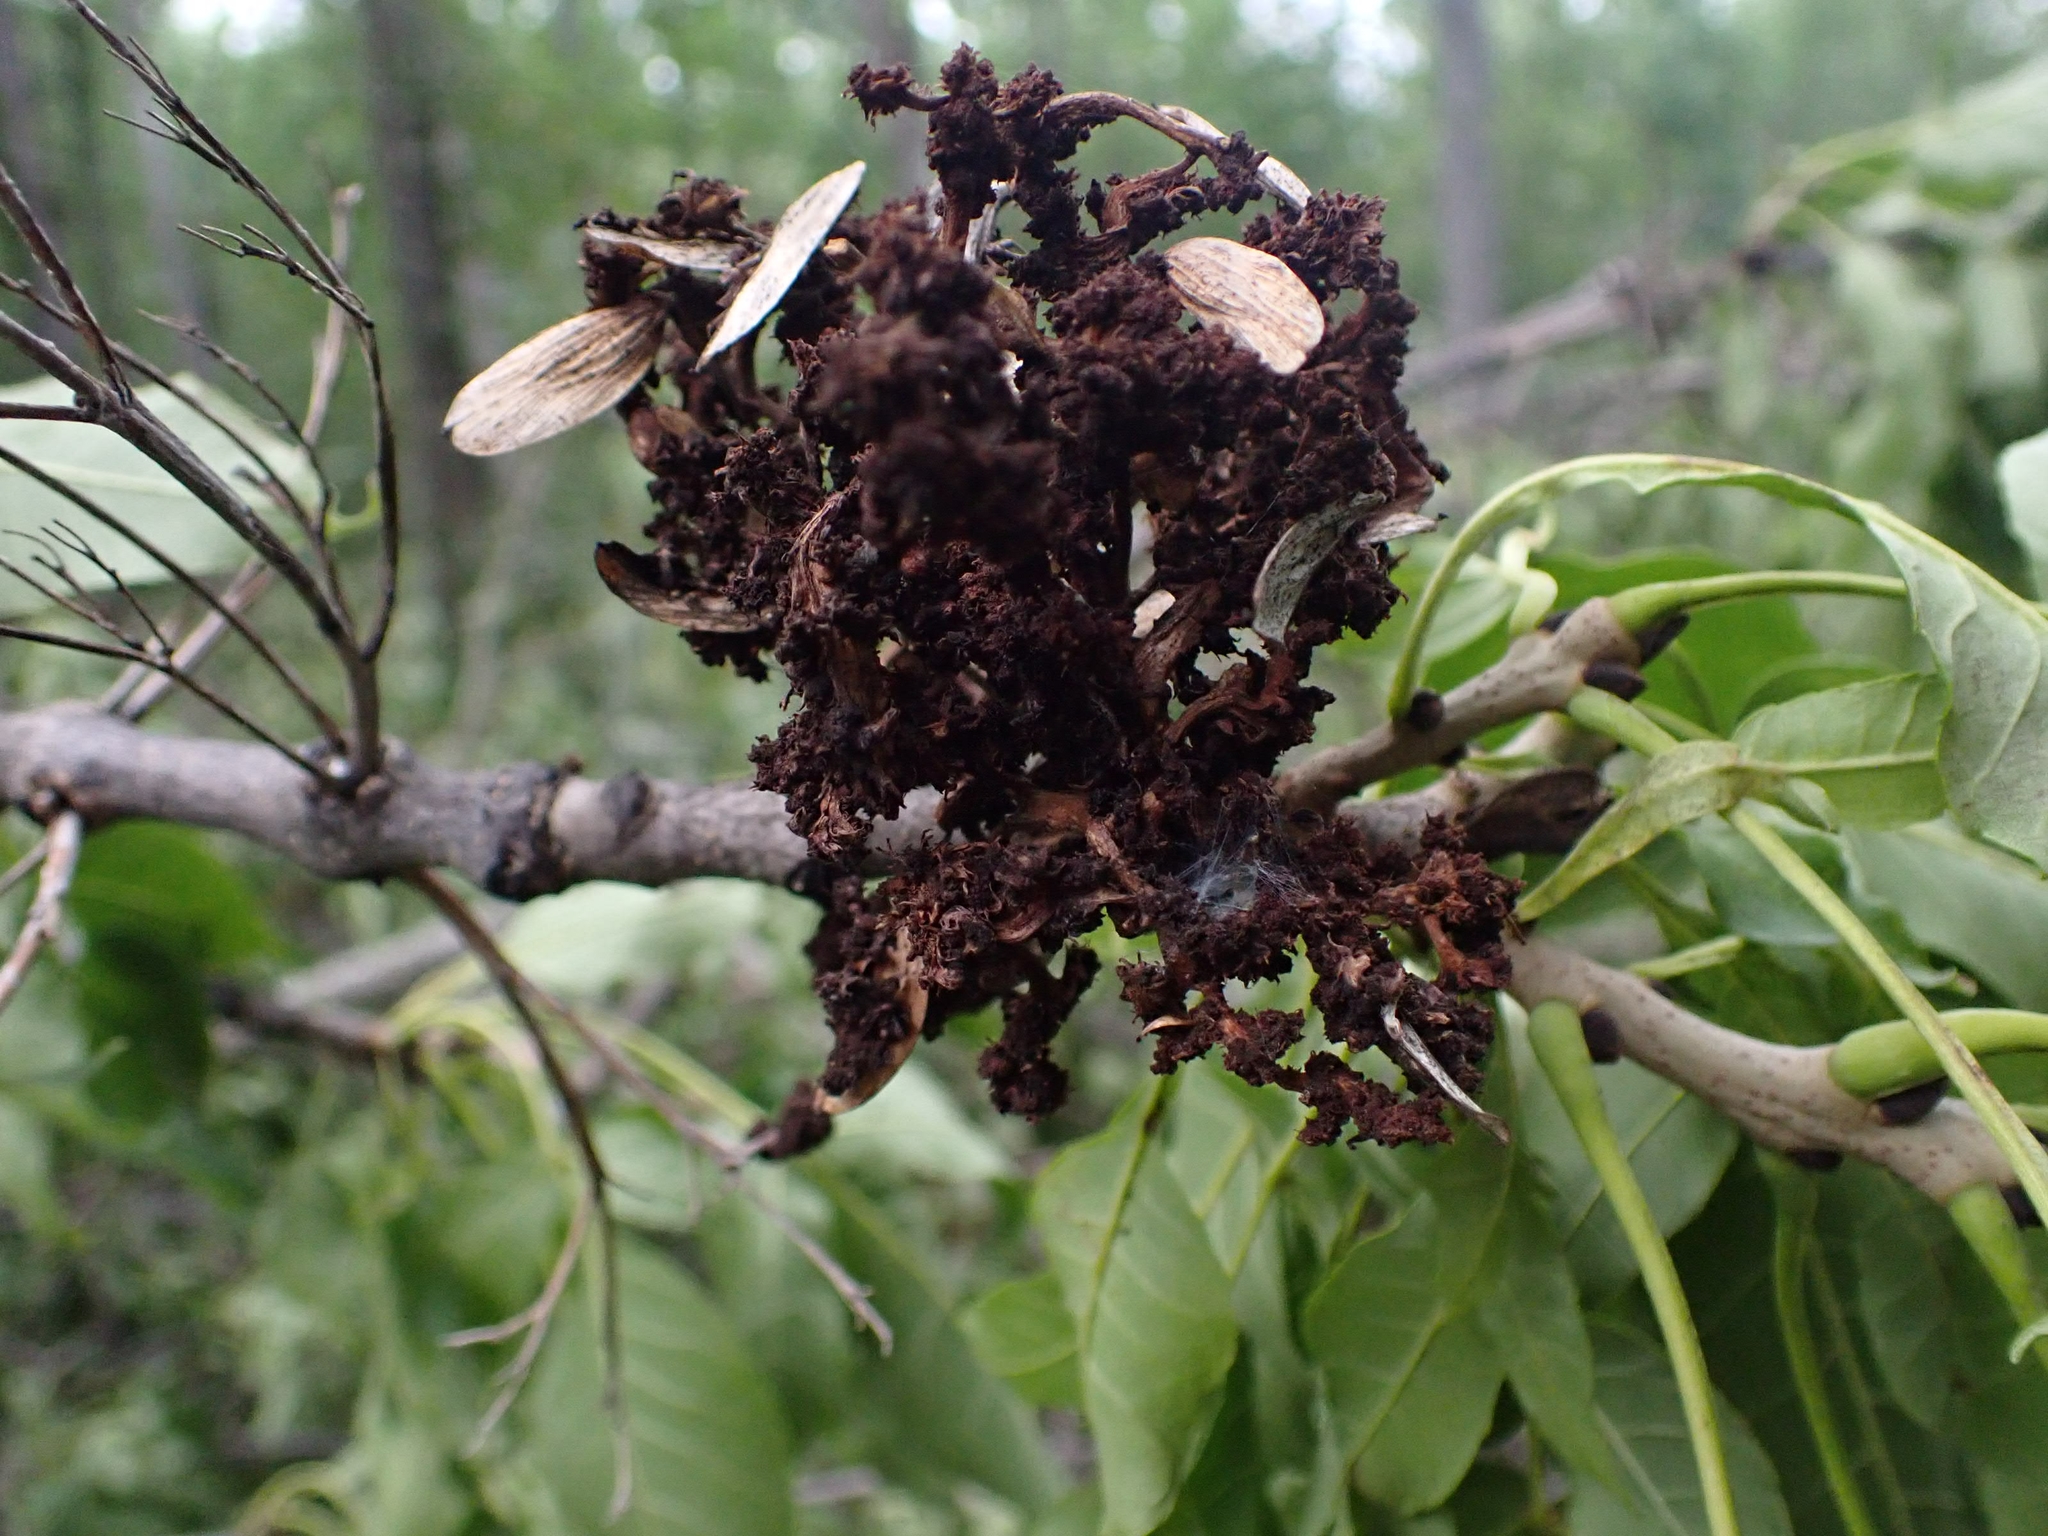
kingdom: Animalia
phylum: Arthropoda
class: Arachnida
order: Trombidiformes
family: Eriophyidae
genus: Aceria
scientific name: Aceria fraxiniflora
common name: Ash flower gall mite
